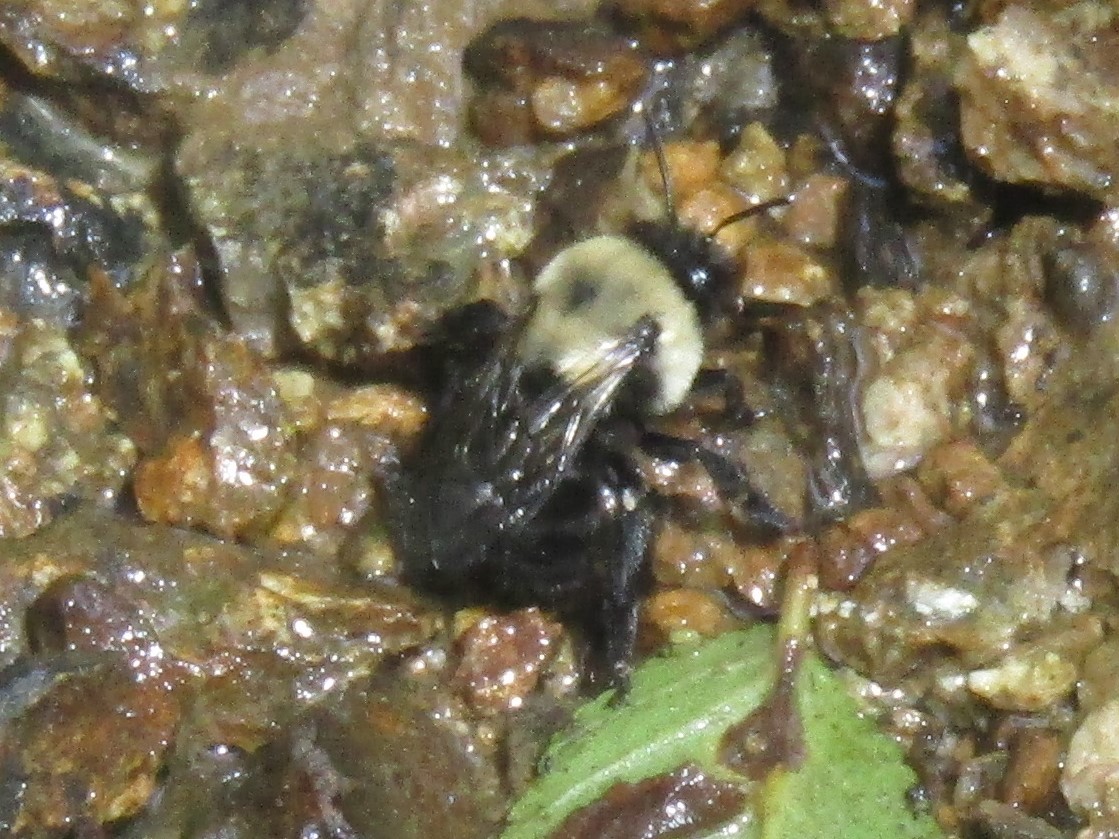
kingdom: Animalia
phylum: Arthropoda
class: Insecta
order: Hymenoptera
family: Apidae
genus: Anthophora
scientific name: Anthophora abrupta
